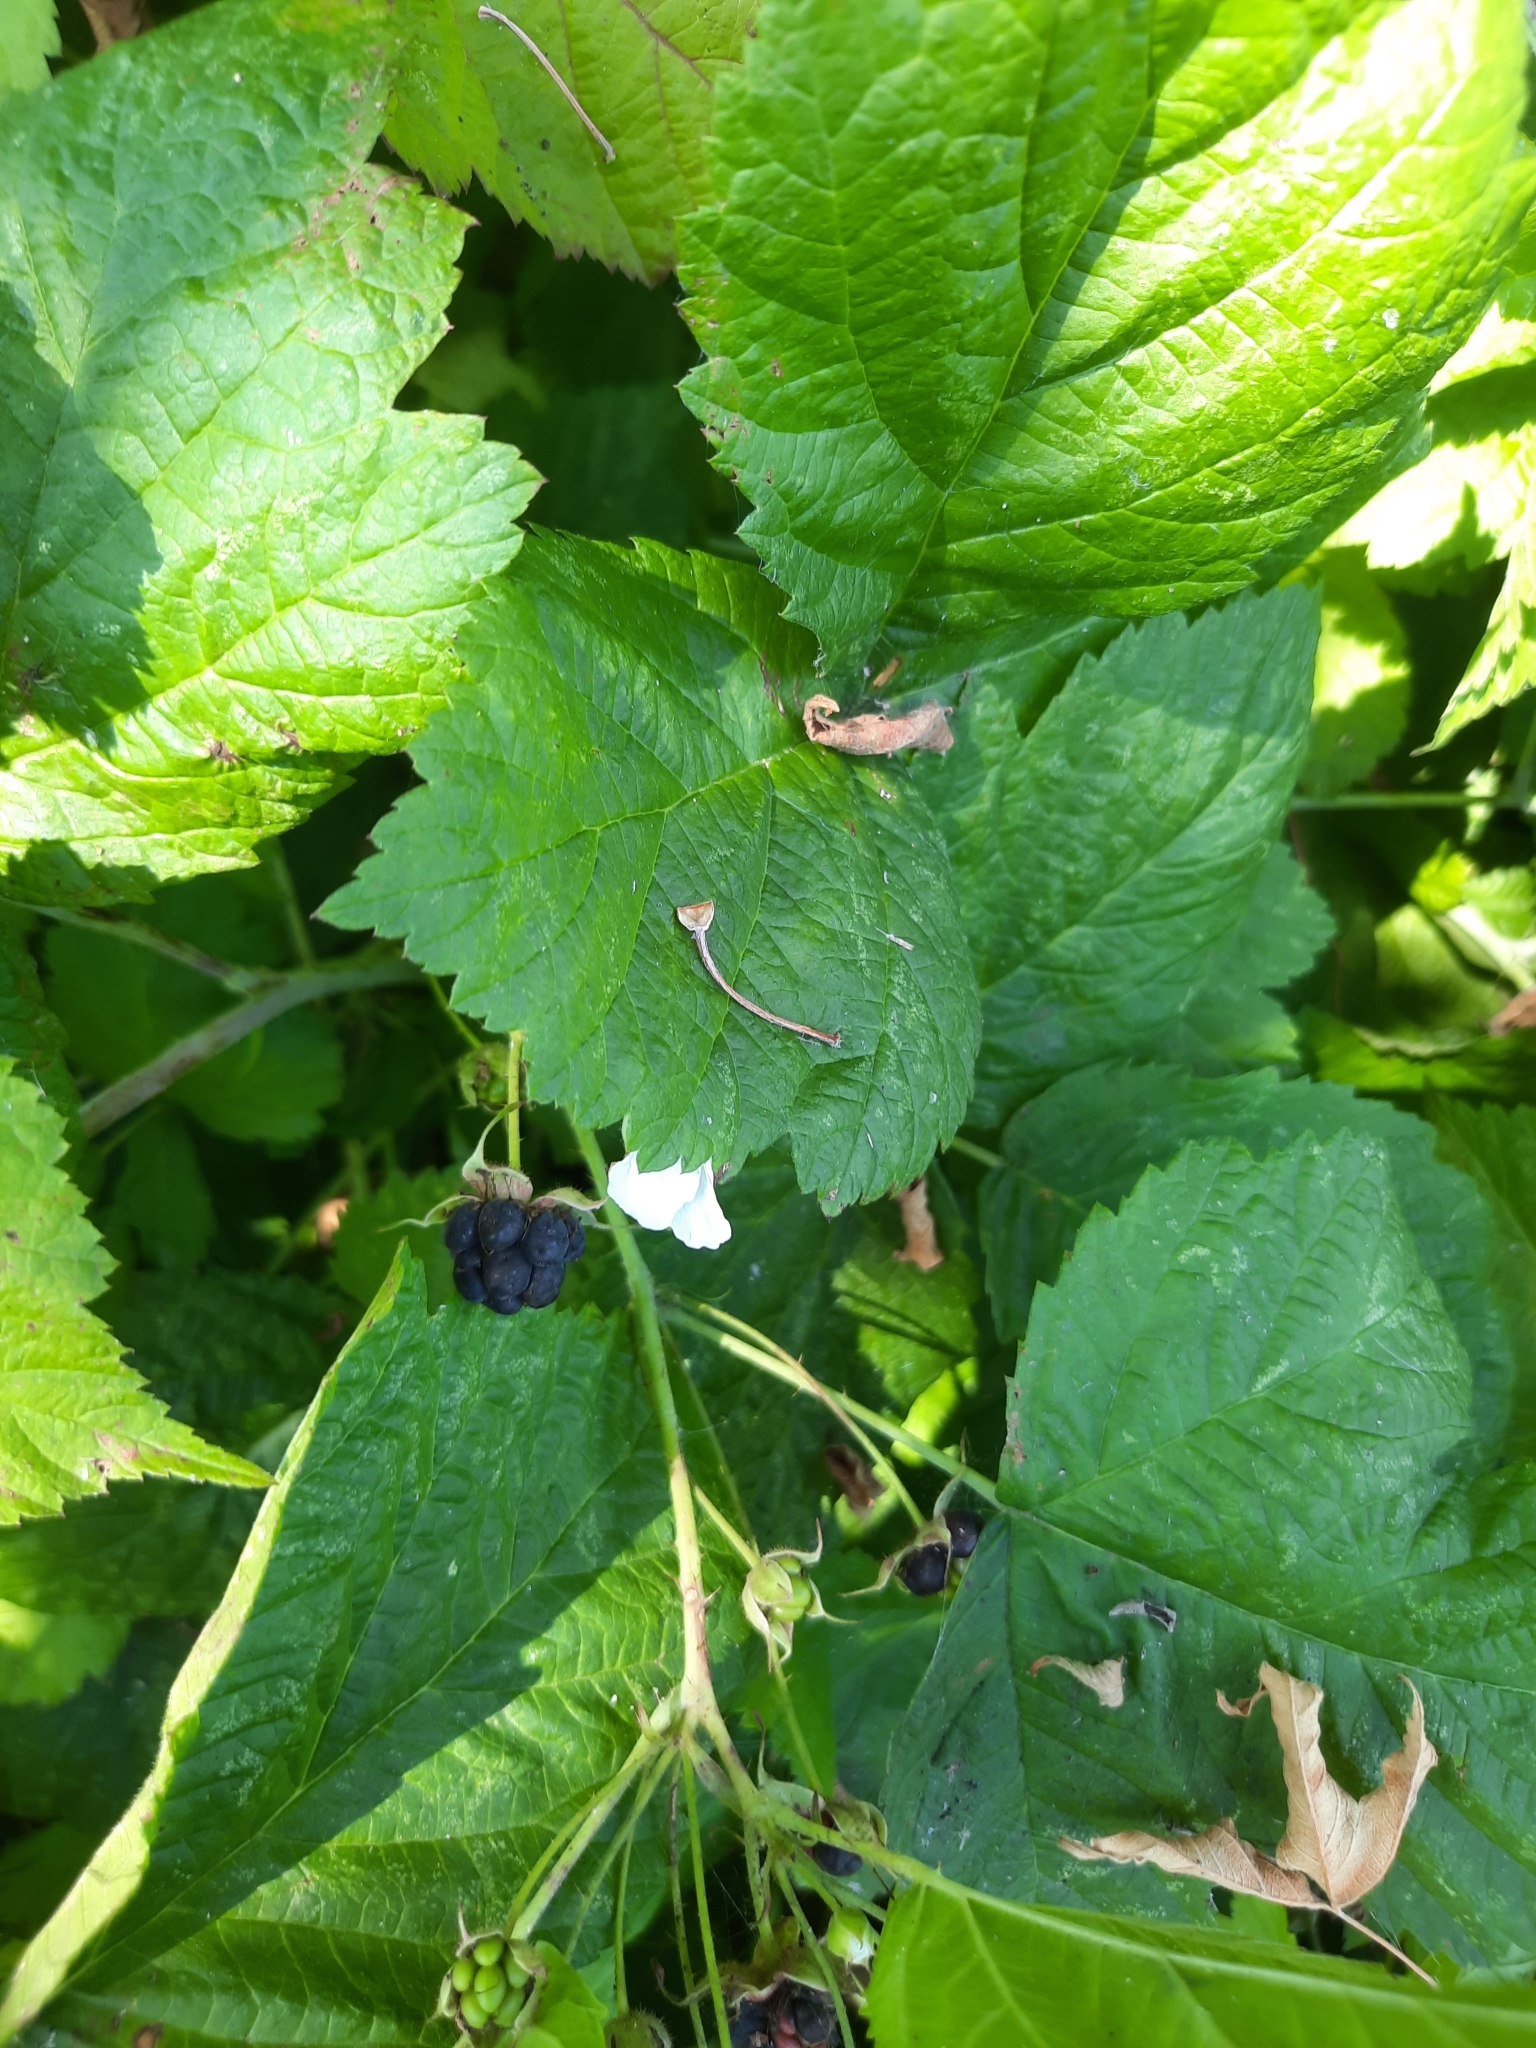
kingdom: Plantae
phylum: Tracheophyta
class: Magnoliopsida
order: Rosales
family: Rosaceae
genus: Rubus
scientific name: Rubus caesius
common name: Dewberry
